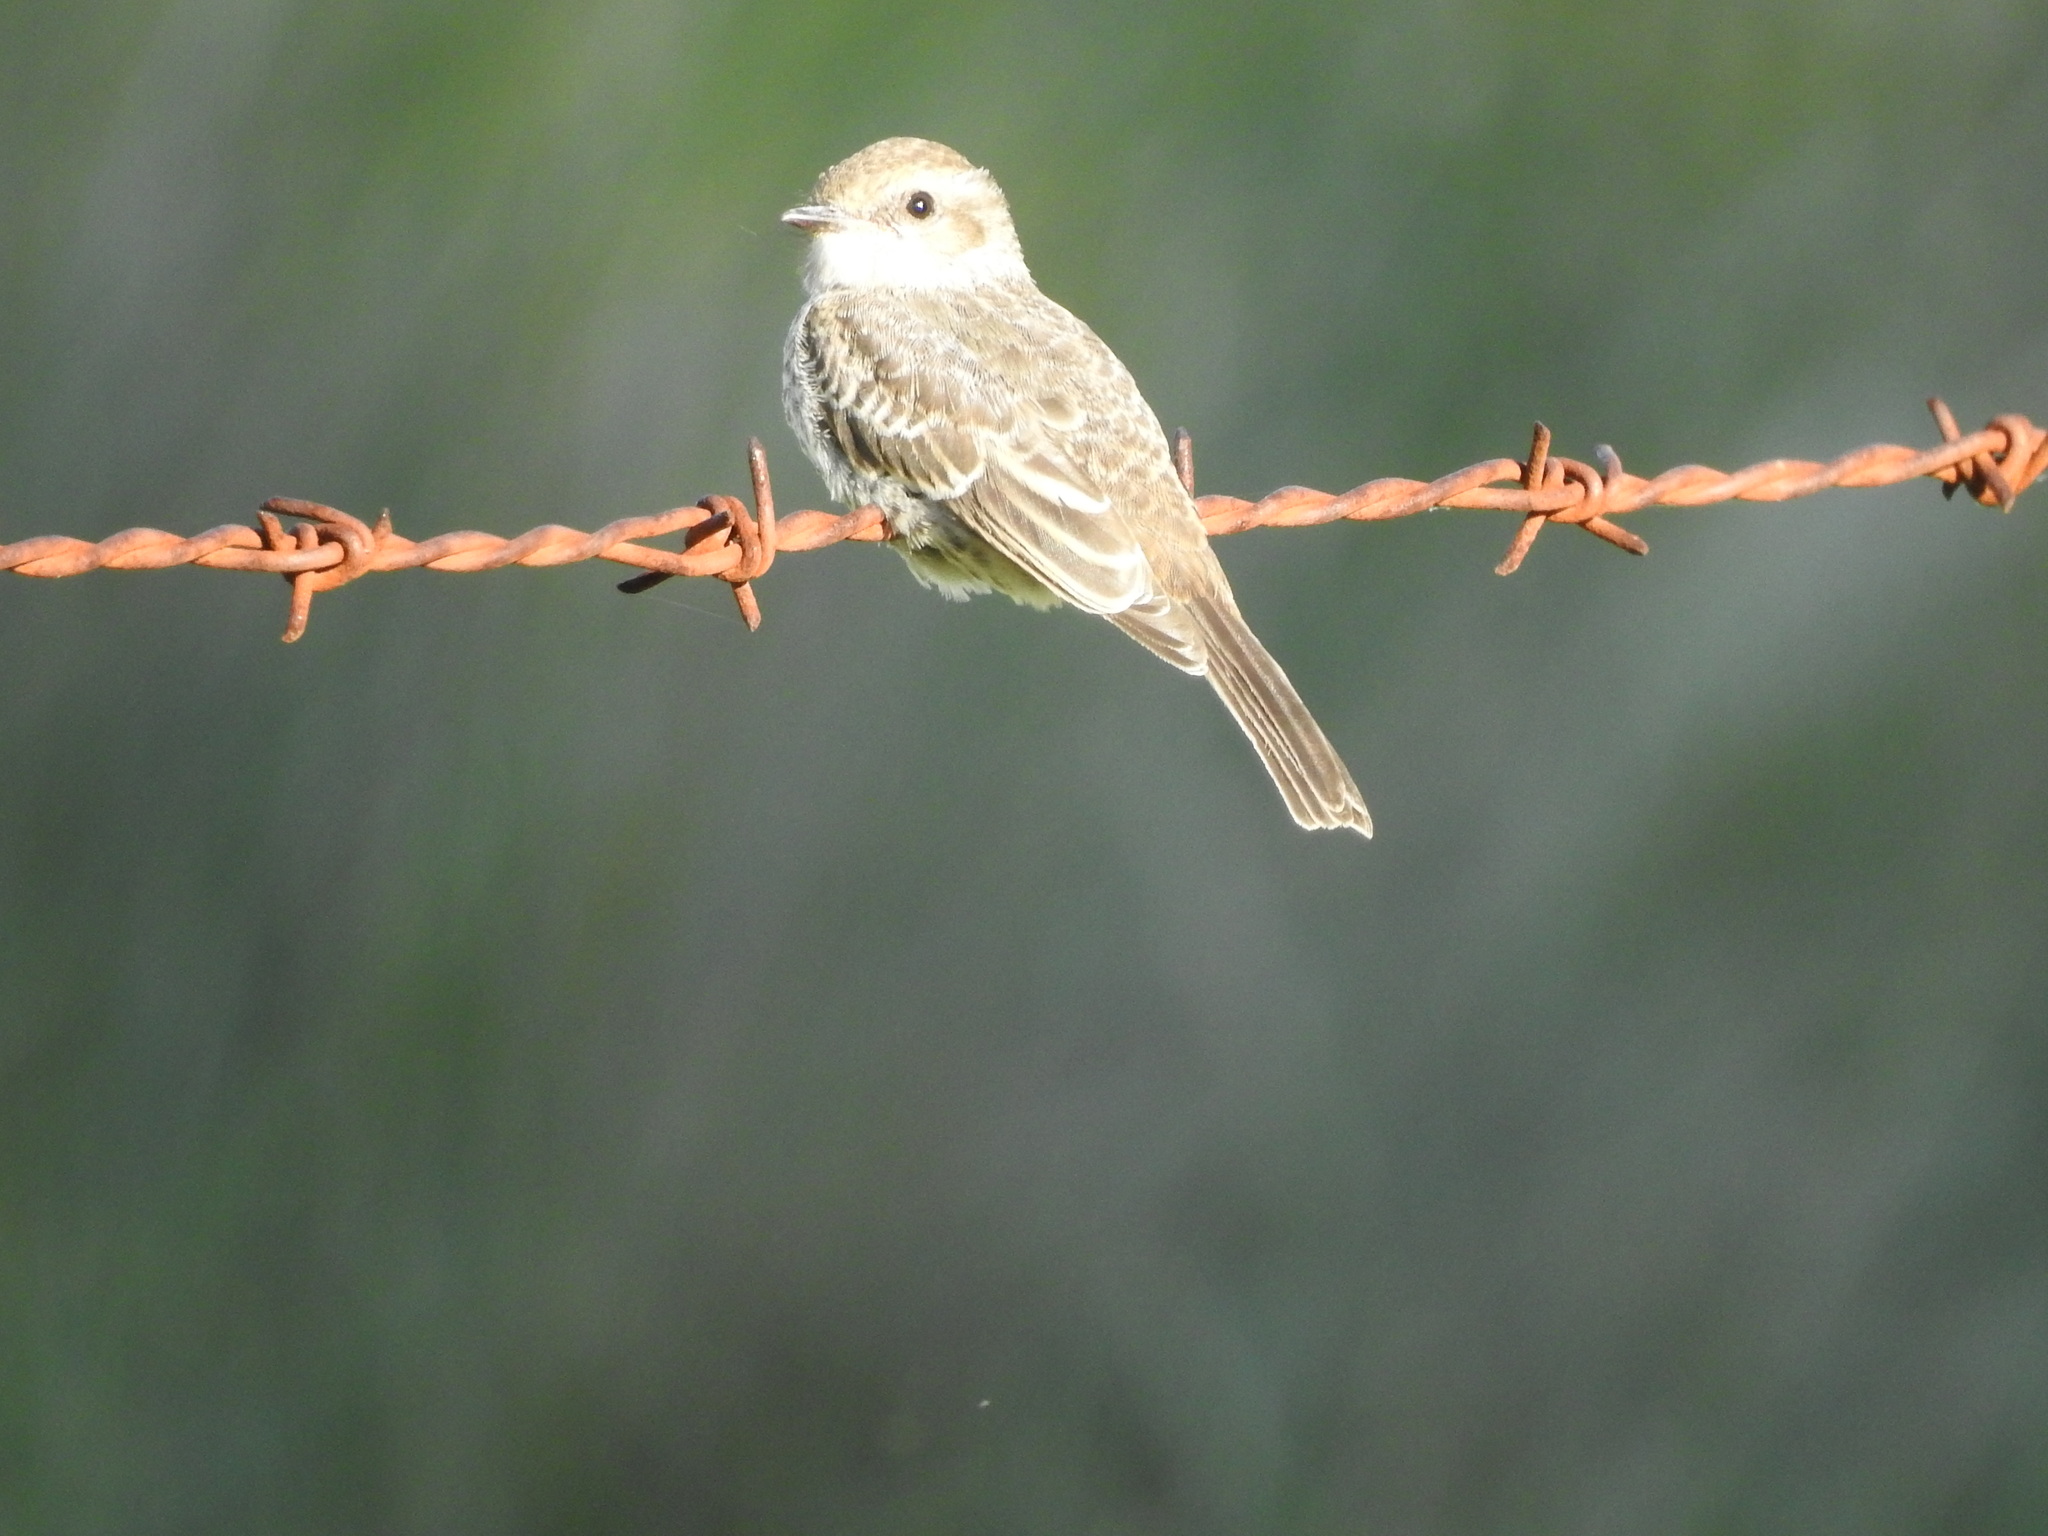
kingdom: Animalia
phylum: Chordata
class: Aves
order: Passeriformes
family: Tyrannidae
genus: Pyrocephalus
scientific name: Pyrocephalus rubinus
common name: Vermilion flycatcher
